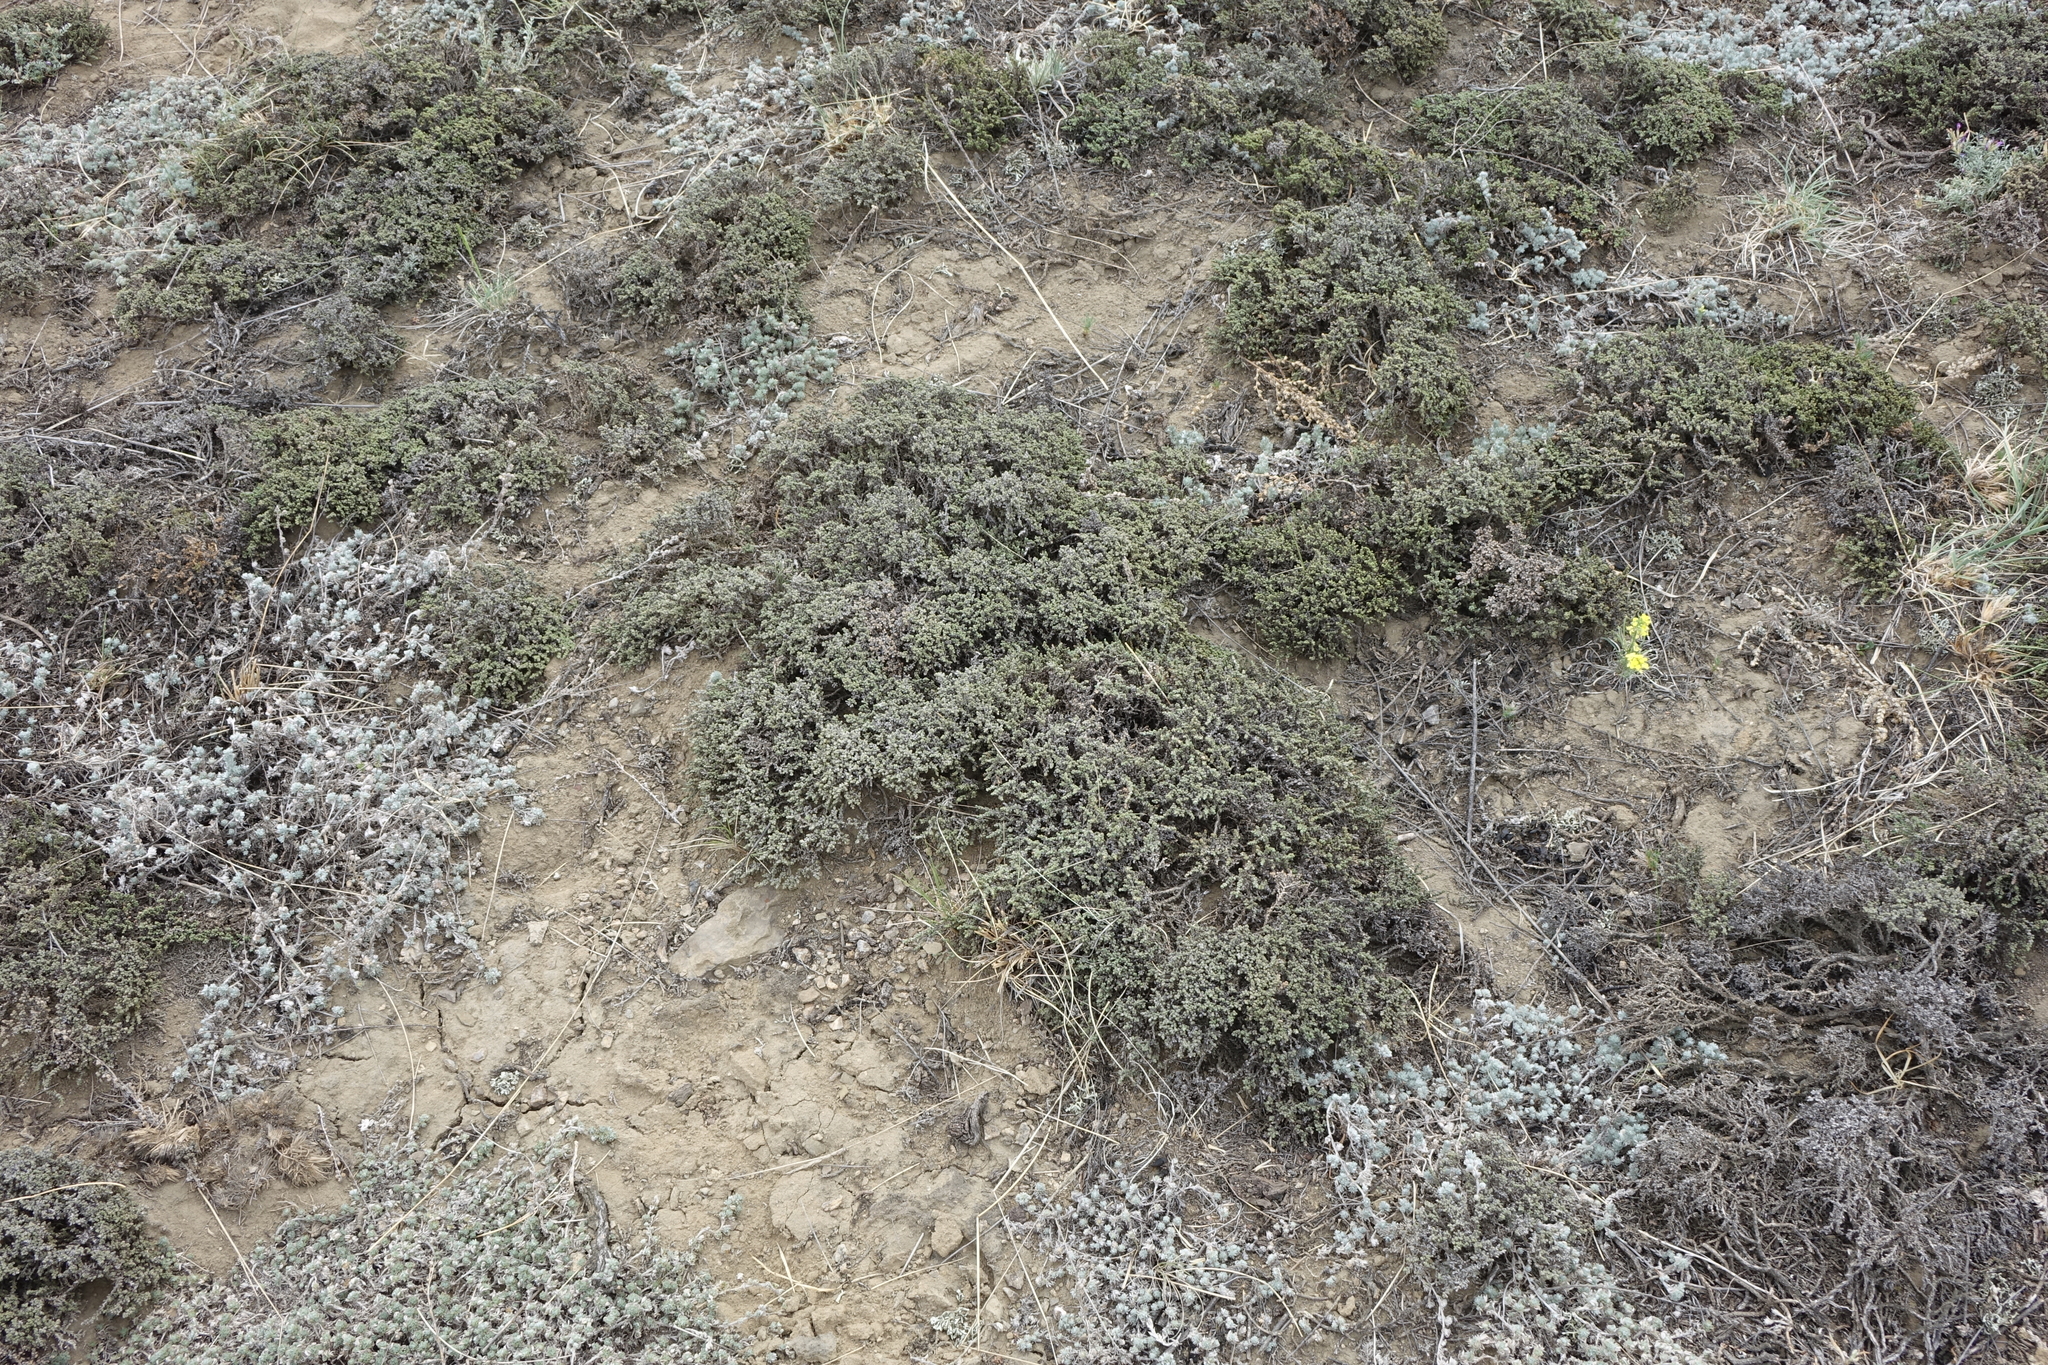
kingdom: Plantae
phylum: Tracheophyta
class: Magnoliopsida
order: Caryophyllales
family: Amaranthaceae
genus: Nanophyton
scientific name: Nanophyton grubovii
